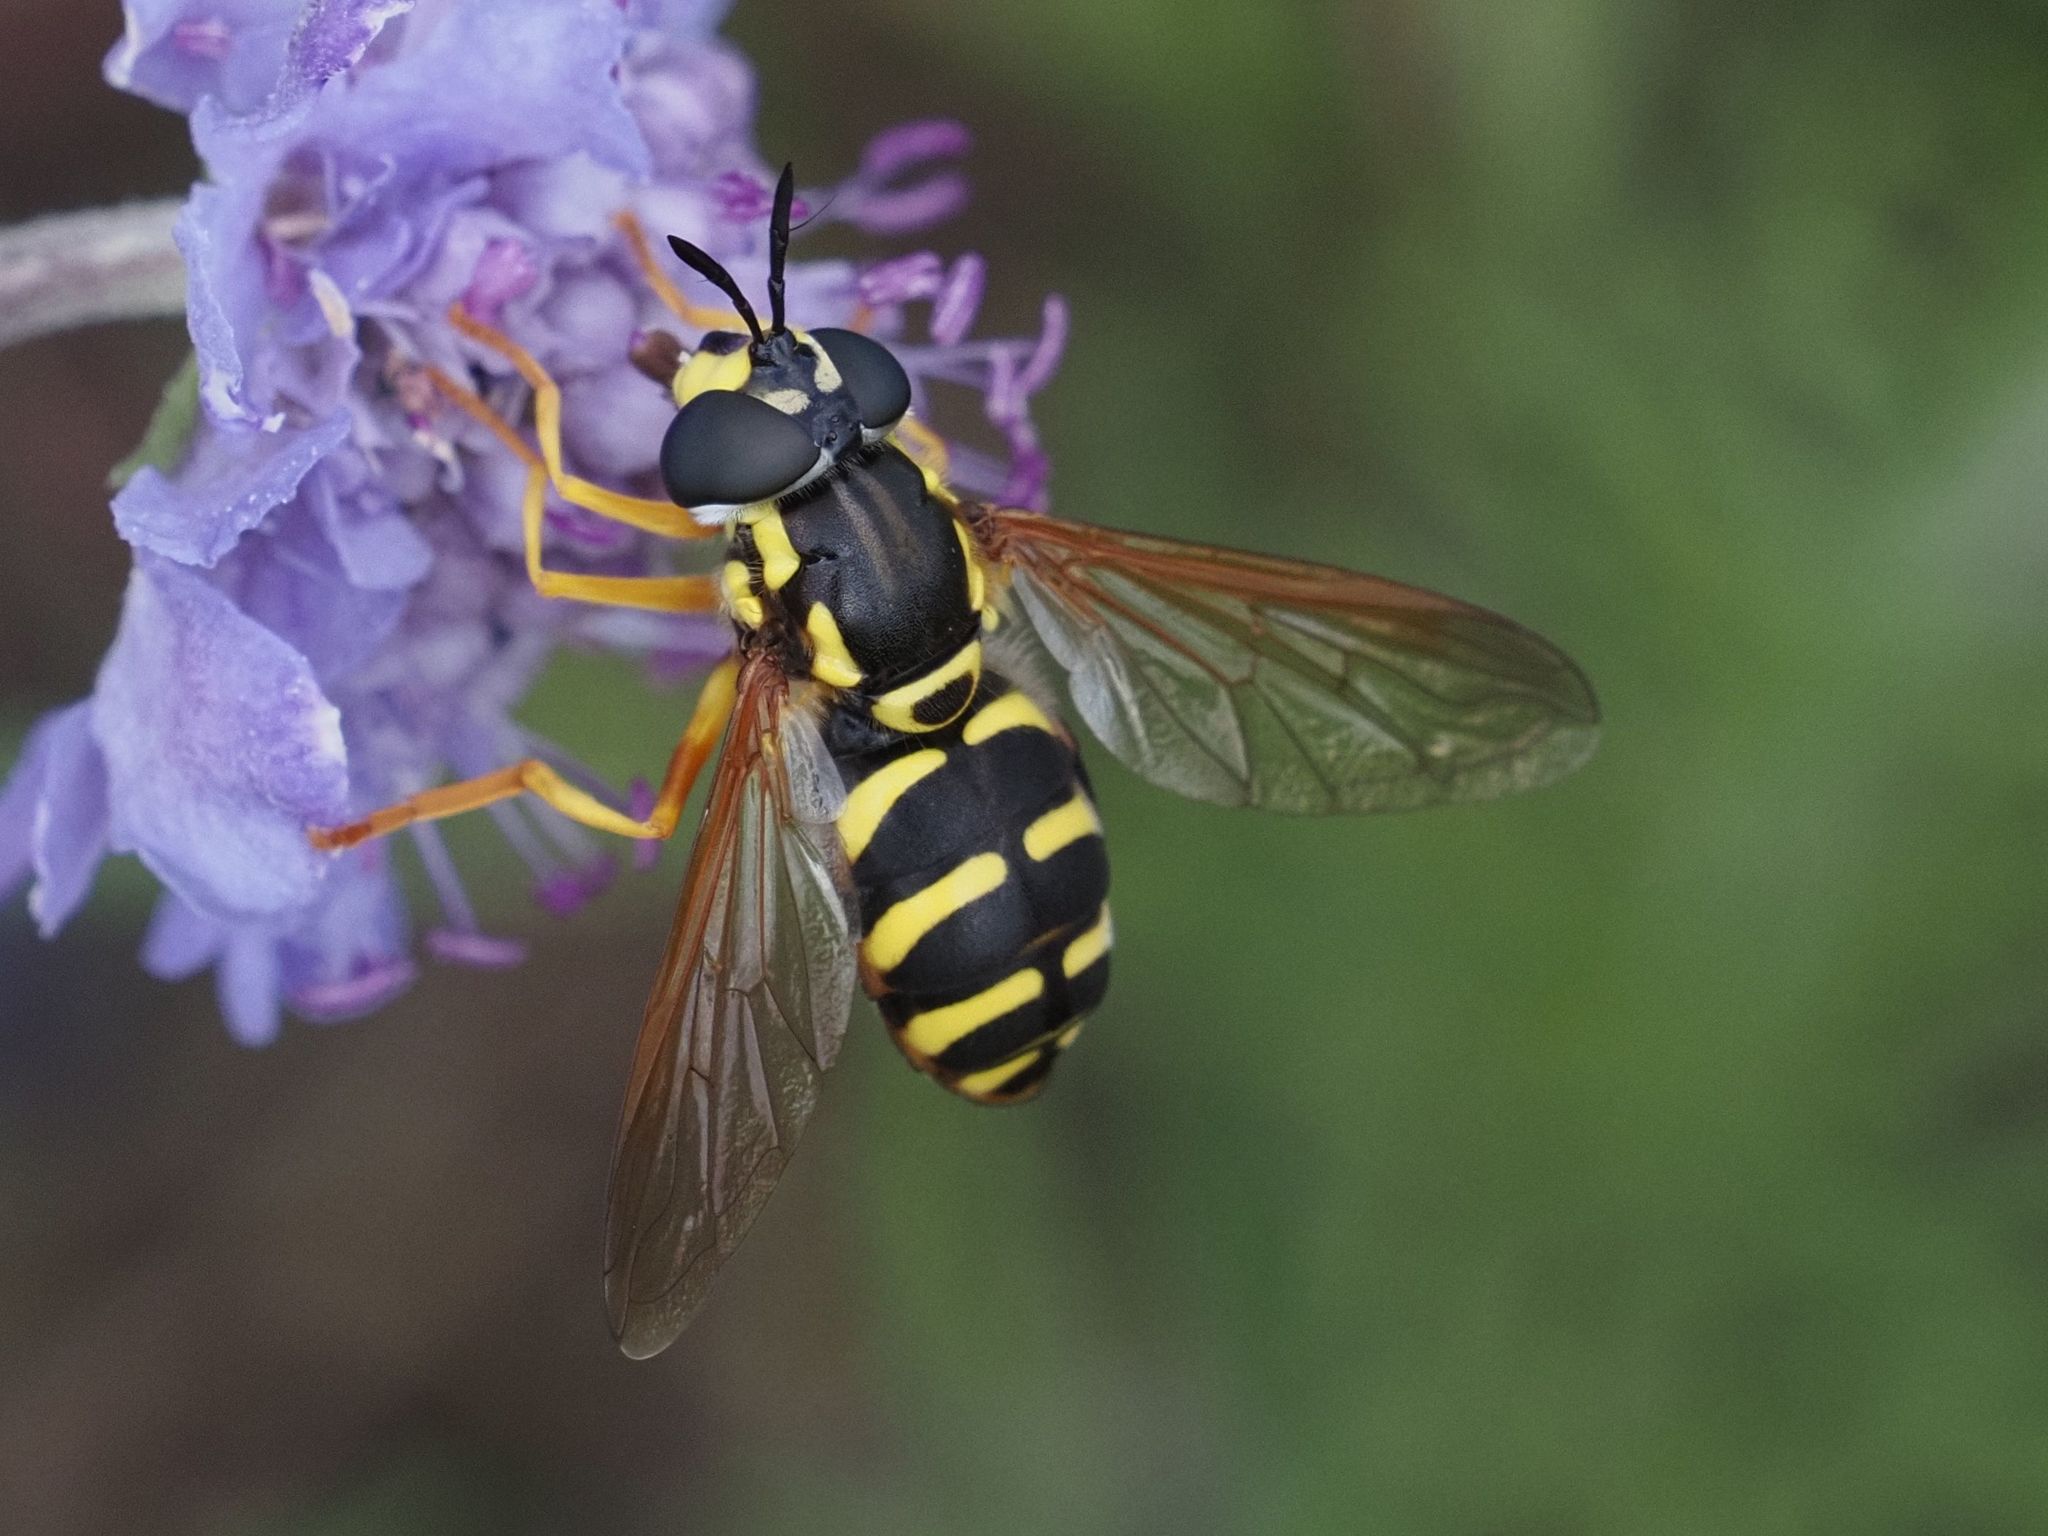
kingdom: Animalia
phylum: Arthropoda
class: Insecta
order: Diptera
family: Syrphidae
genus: Chrysotoxum
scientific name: Chrysotoxum elegans
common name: Zipperback
